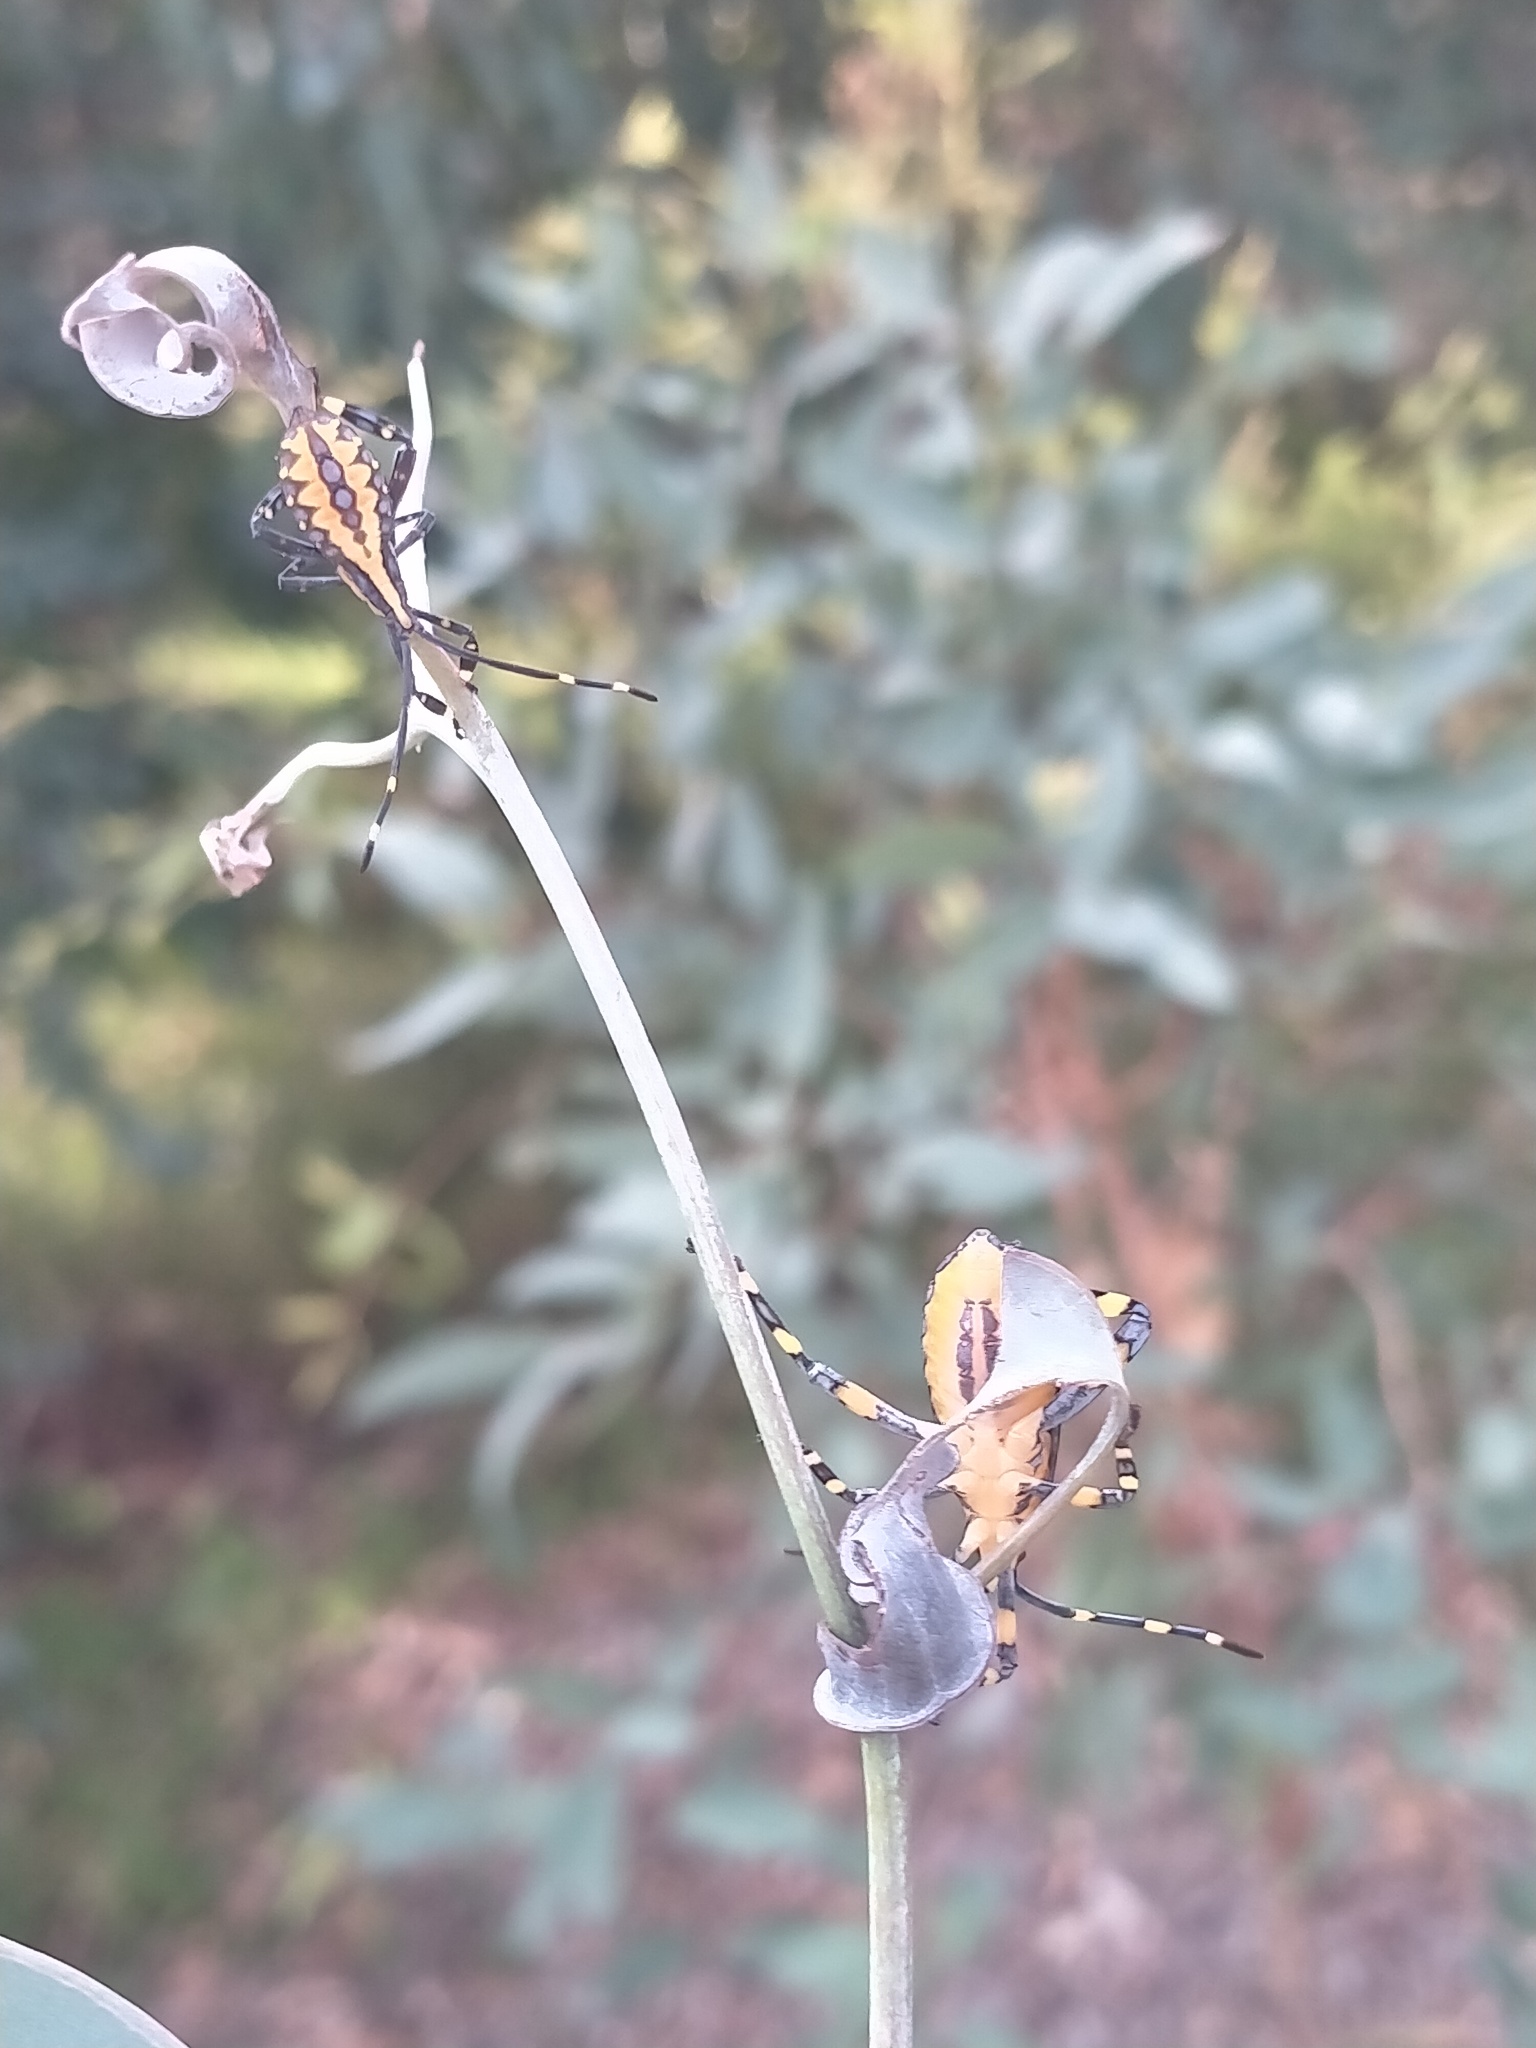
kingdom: Animalia
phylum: Arthropoda
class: Insecta
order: Hemiptera
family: Coreidae
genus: Amorbus
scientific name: Amorbus atomarius
